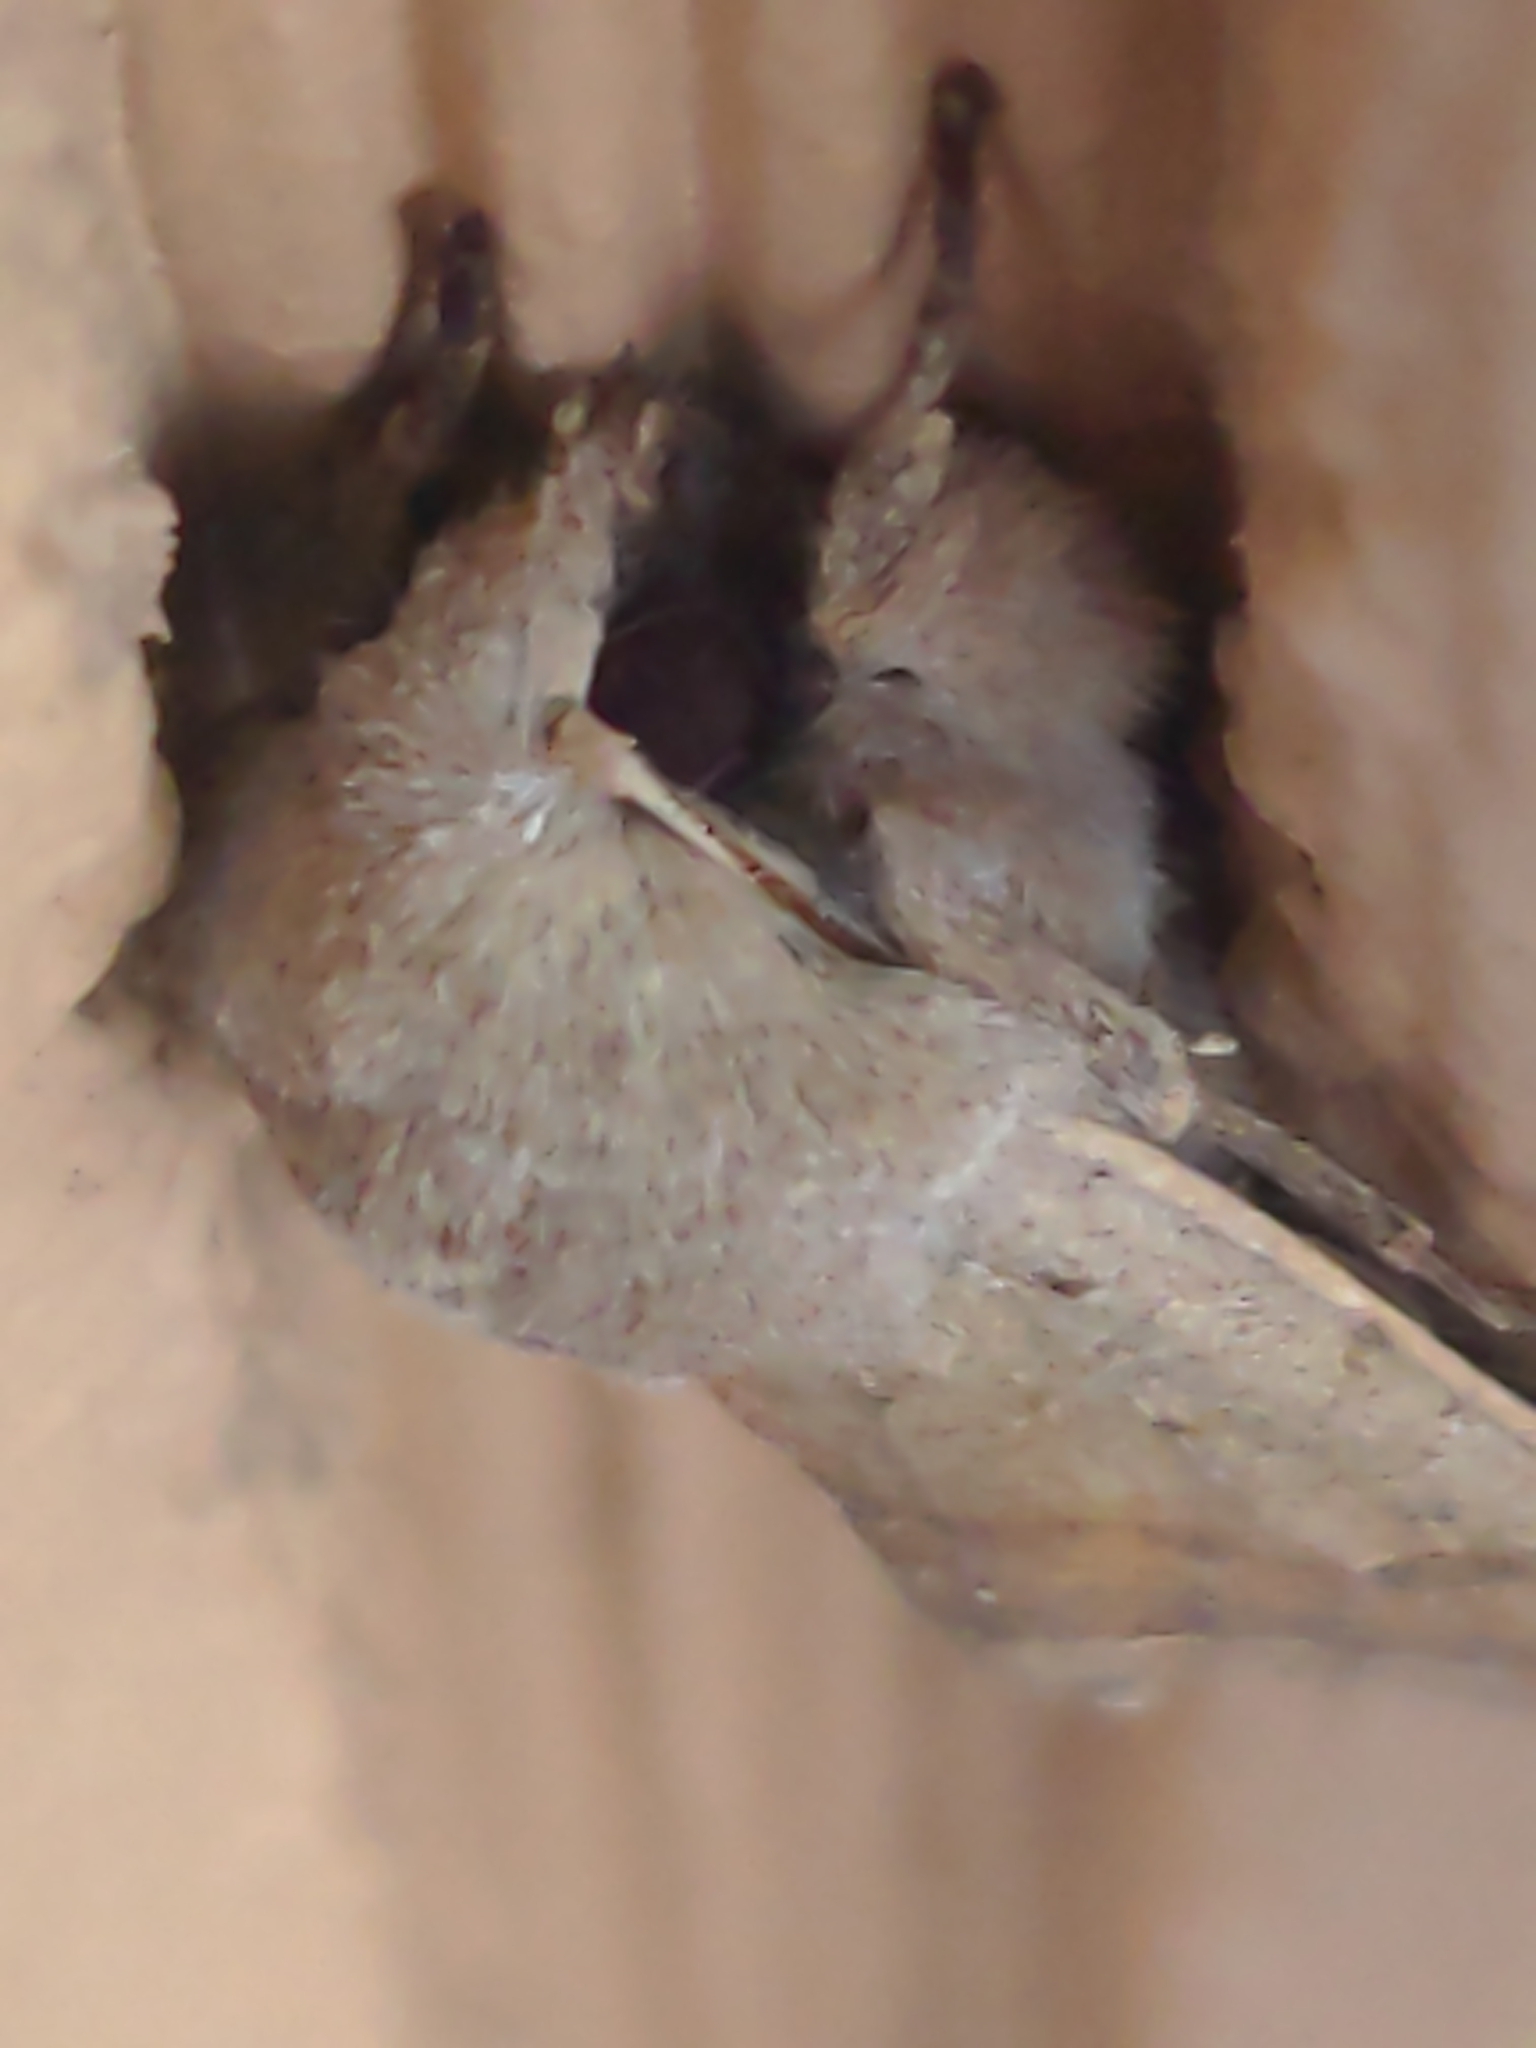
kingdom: Animalia
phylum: Arthropoda
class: Insecta
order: Lepidoptera
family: Noctuidae
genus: Orthosia
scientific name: Orthosia pacifica
